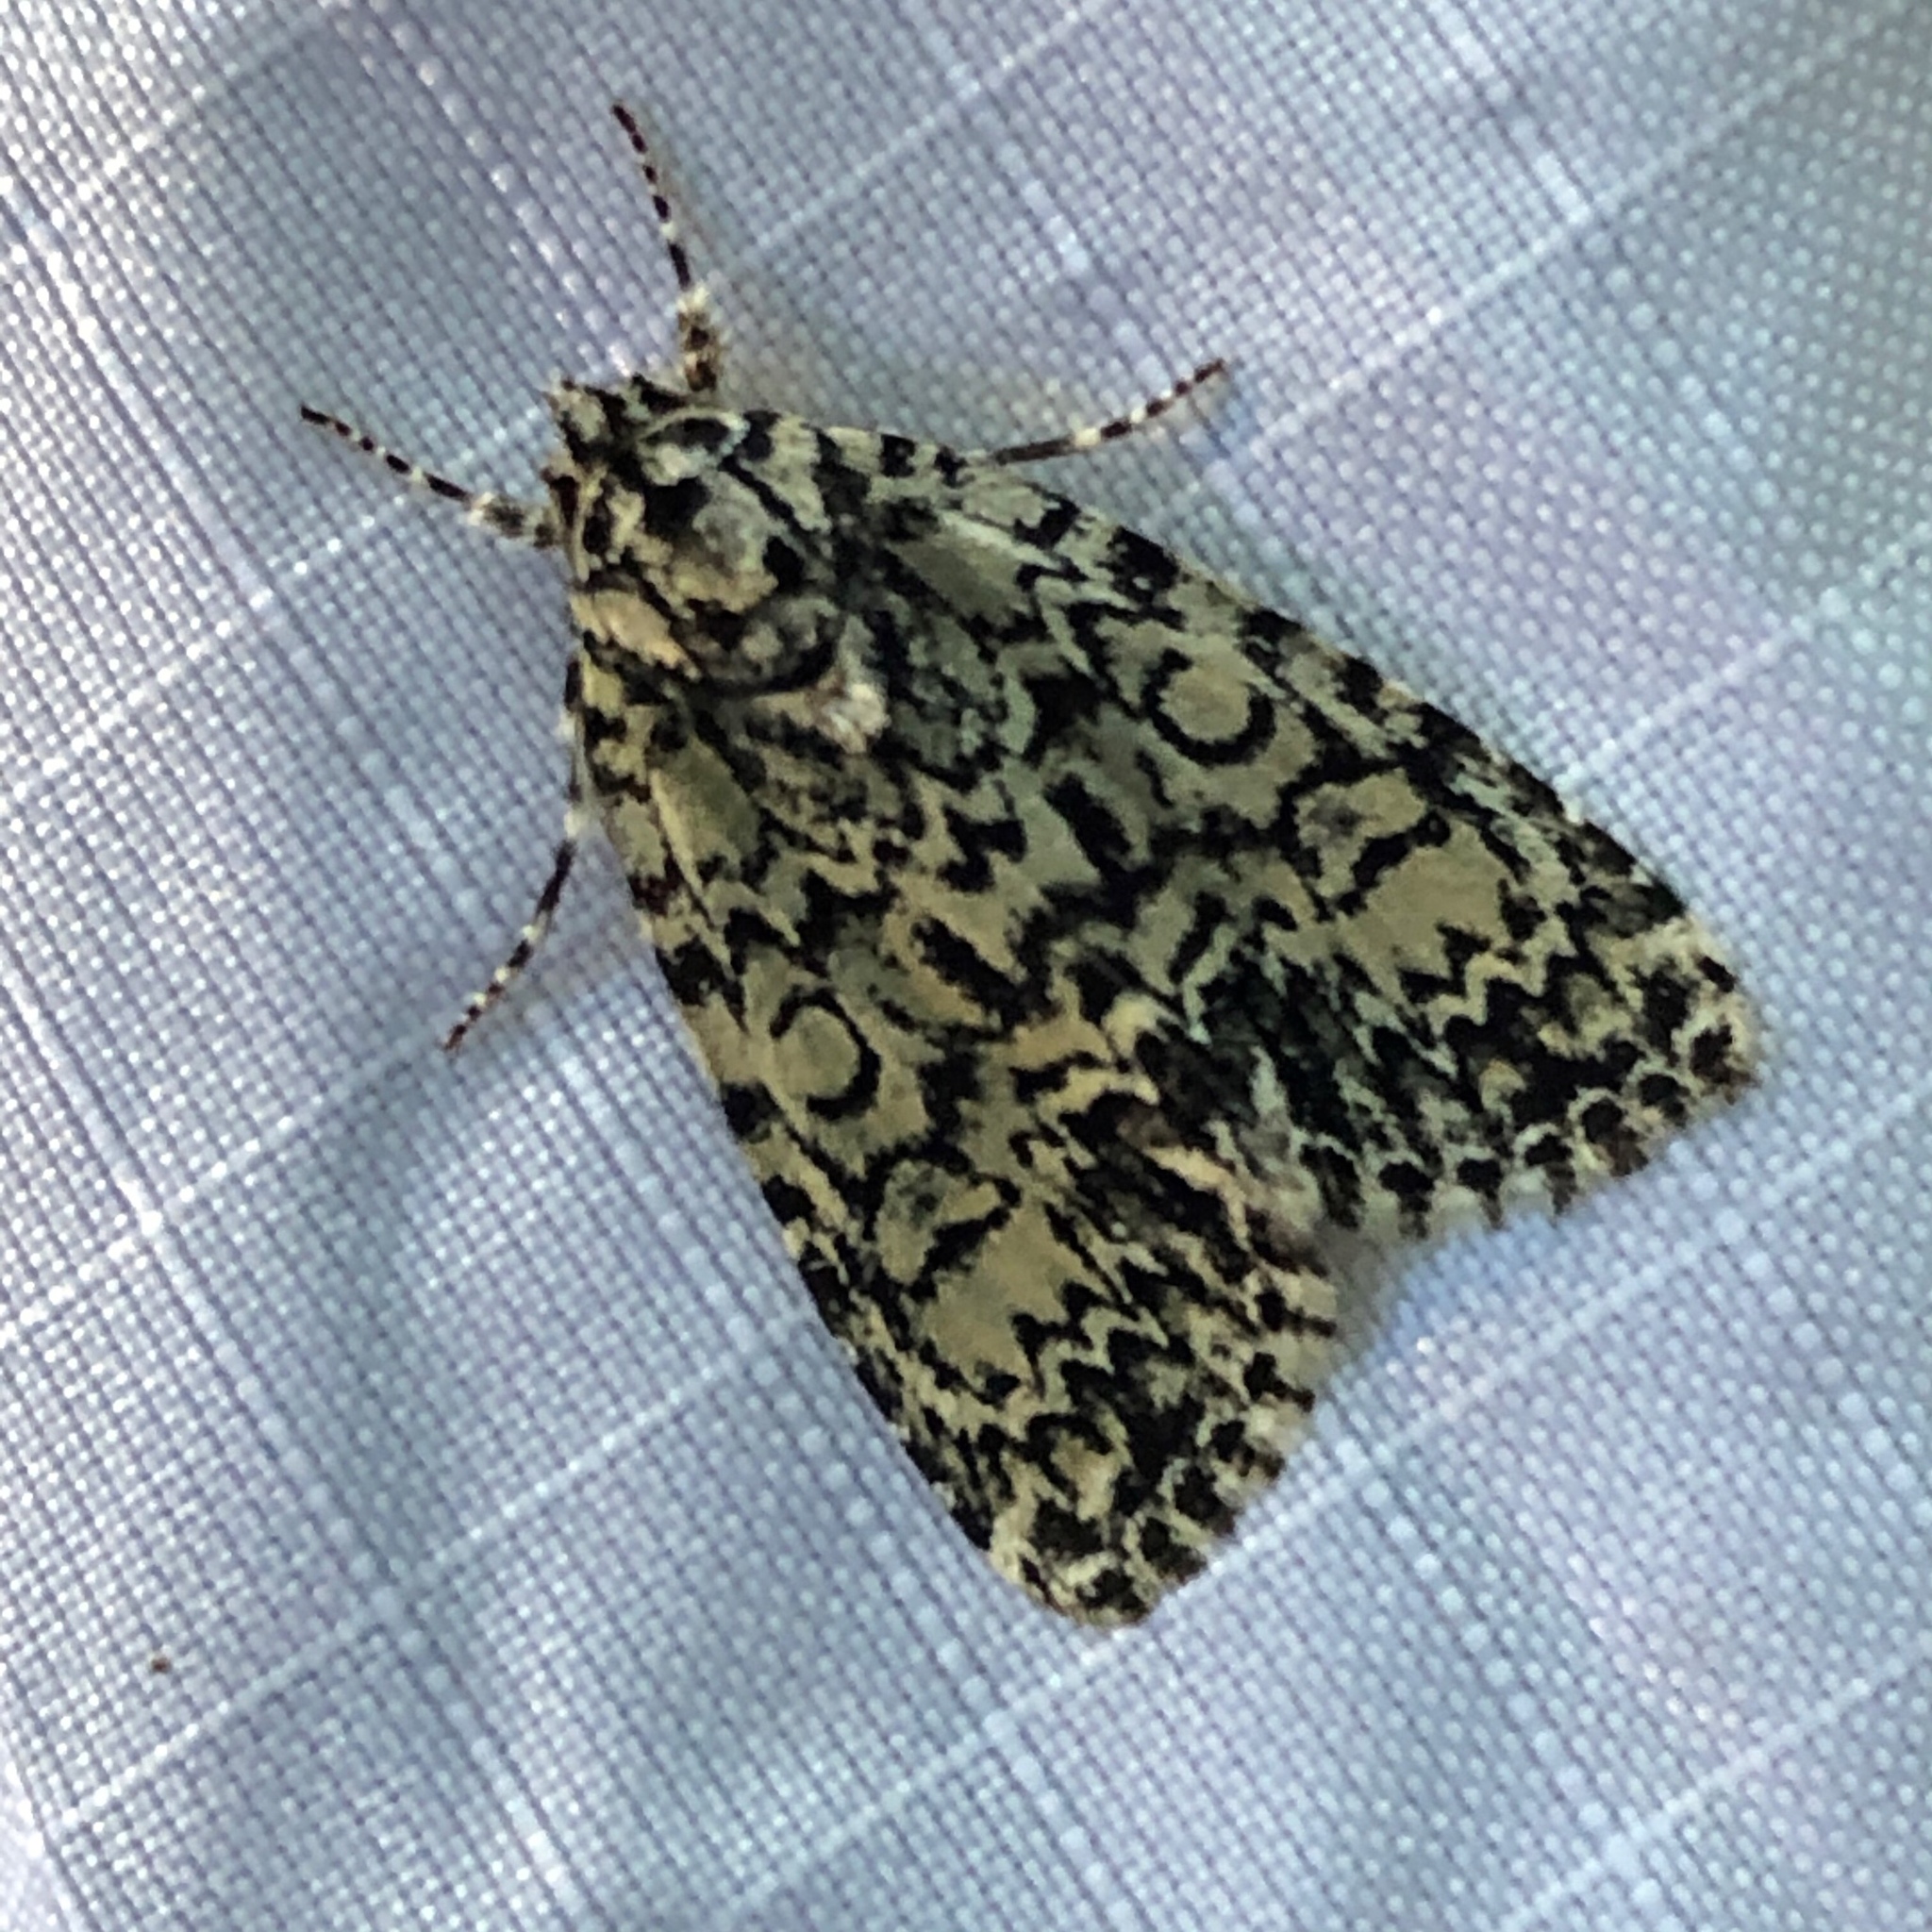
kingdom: Animalia
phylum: Arthropoda
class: Insecta
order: Lepidoptera
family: Noctuidae
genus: Acronicta
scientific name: Acronicta heitzmani
